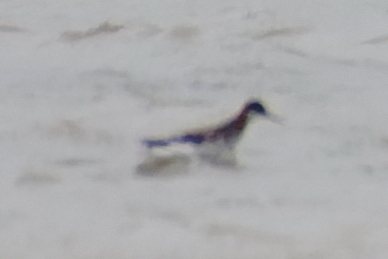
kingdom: Animalia
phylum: Chordata
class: Aves
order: Charadriiformes
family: Scolopacidae
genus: Phalaropus
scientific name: Phalaropus lobatus
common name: Red-necked phalarope
